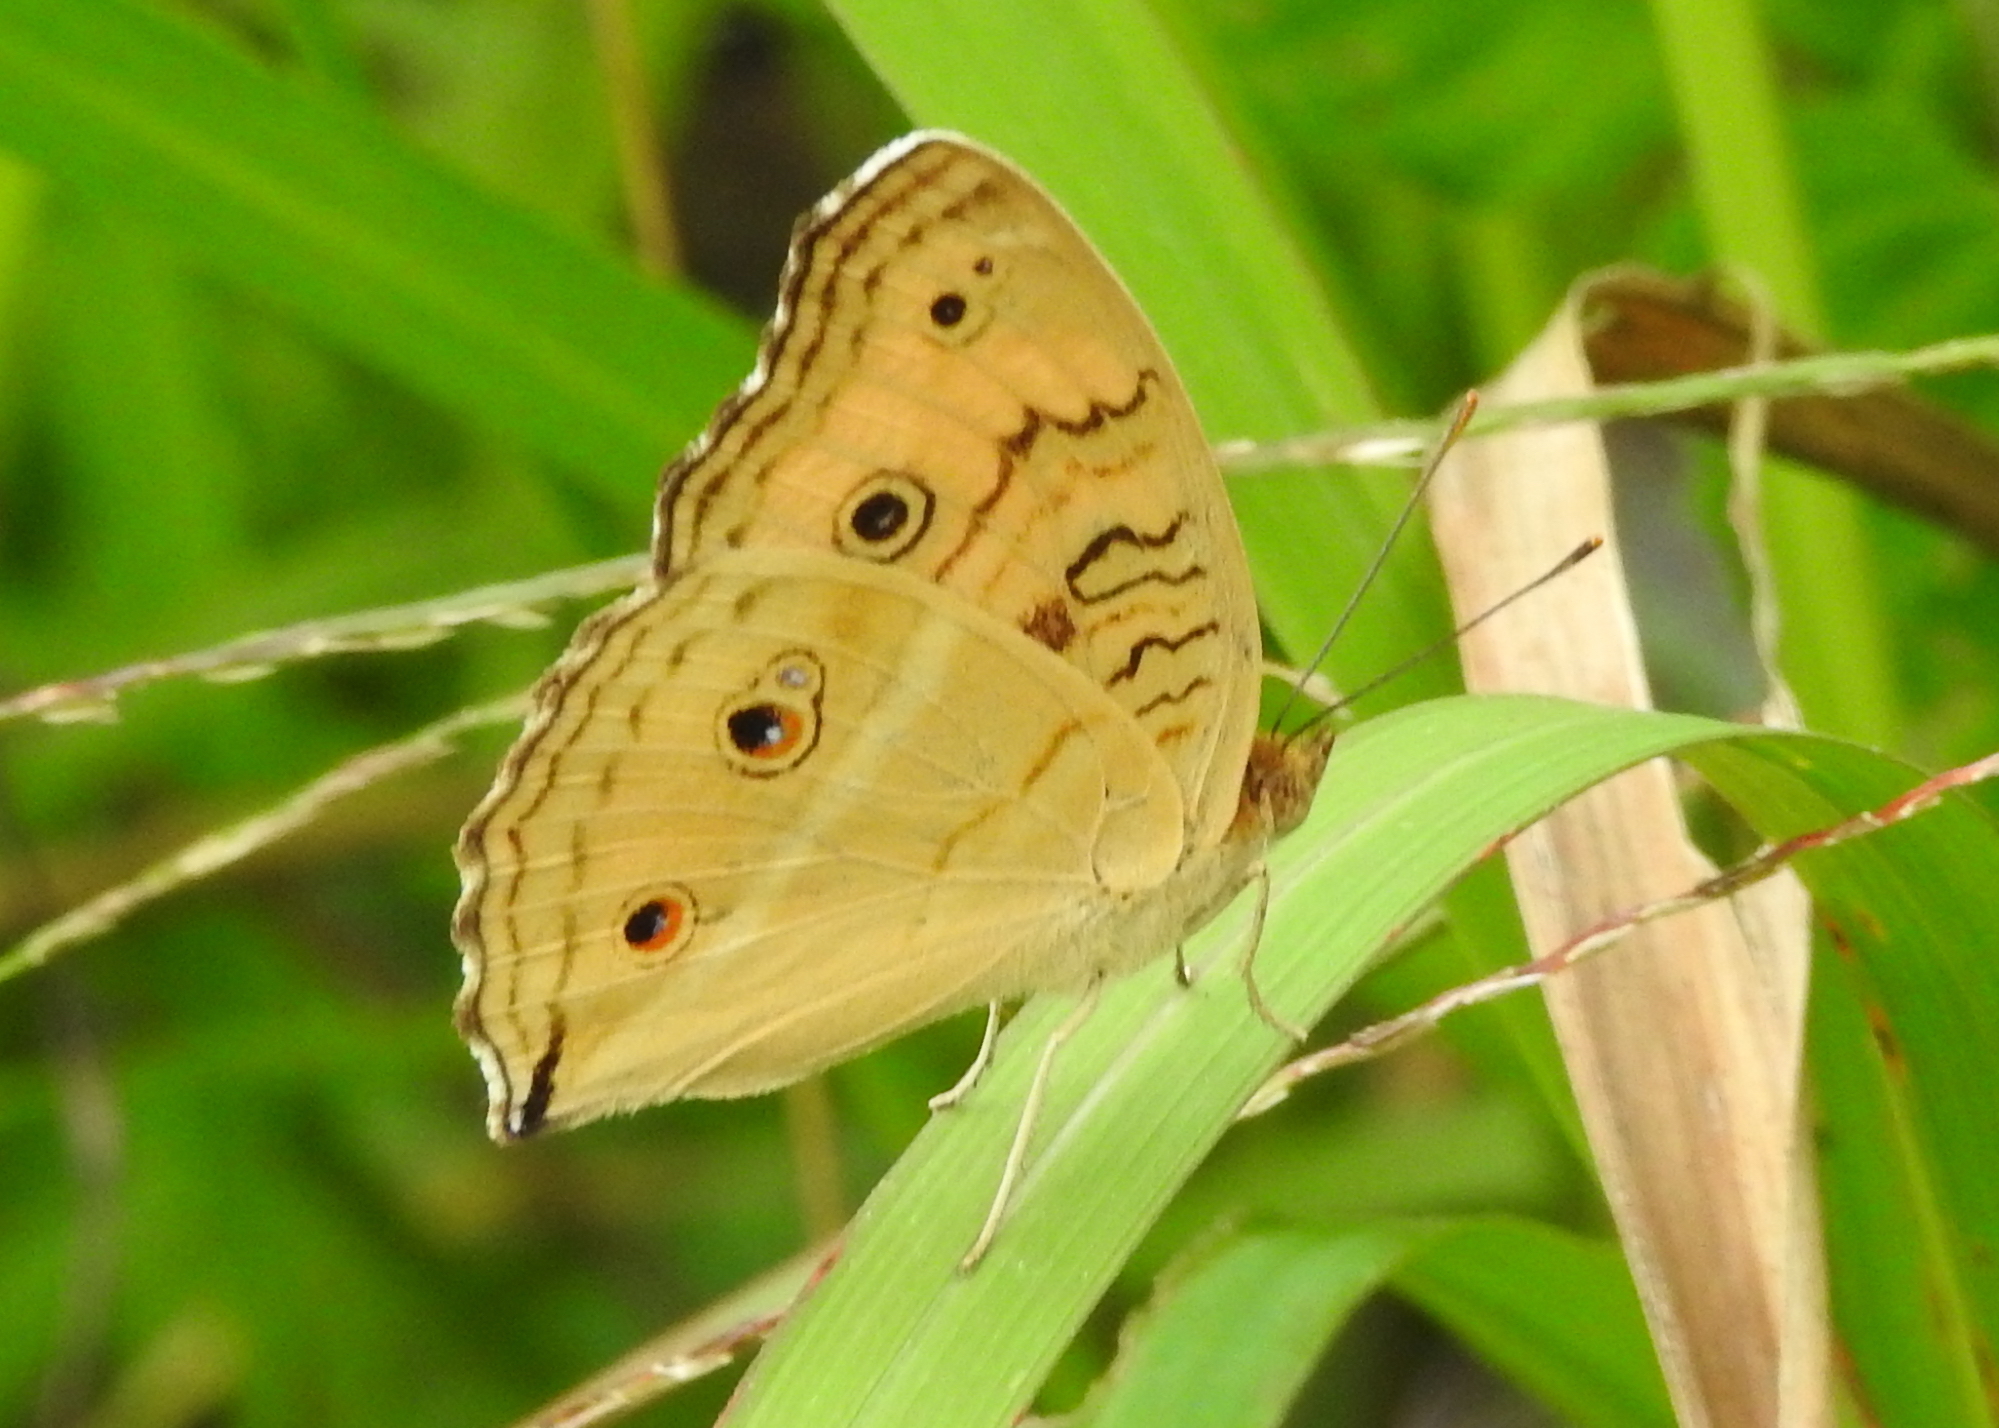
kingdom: Animalia
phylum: Arthropoda
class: Insecta
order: Lepidoptera
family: Nymphalidae
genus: Junonia
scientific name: Junonia almana
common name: Peacock pansy
